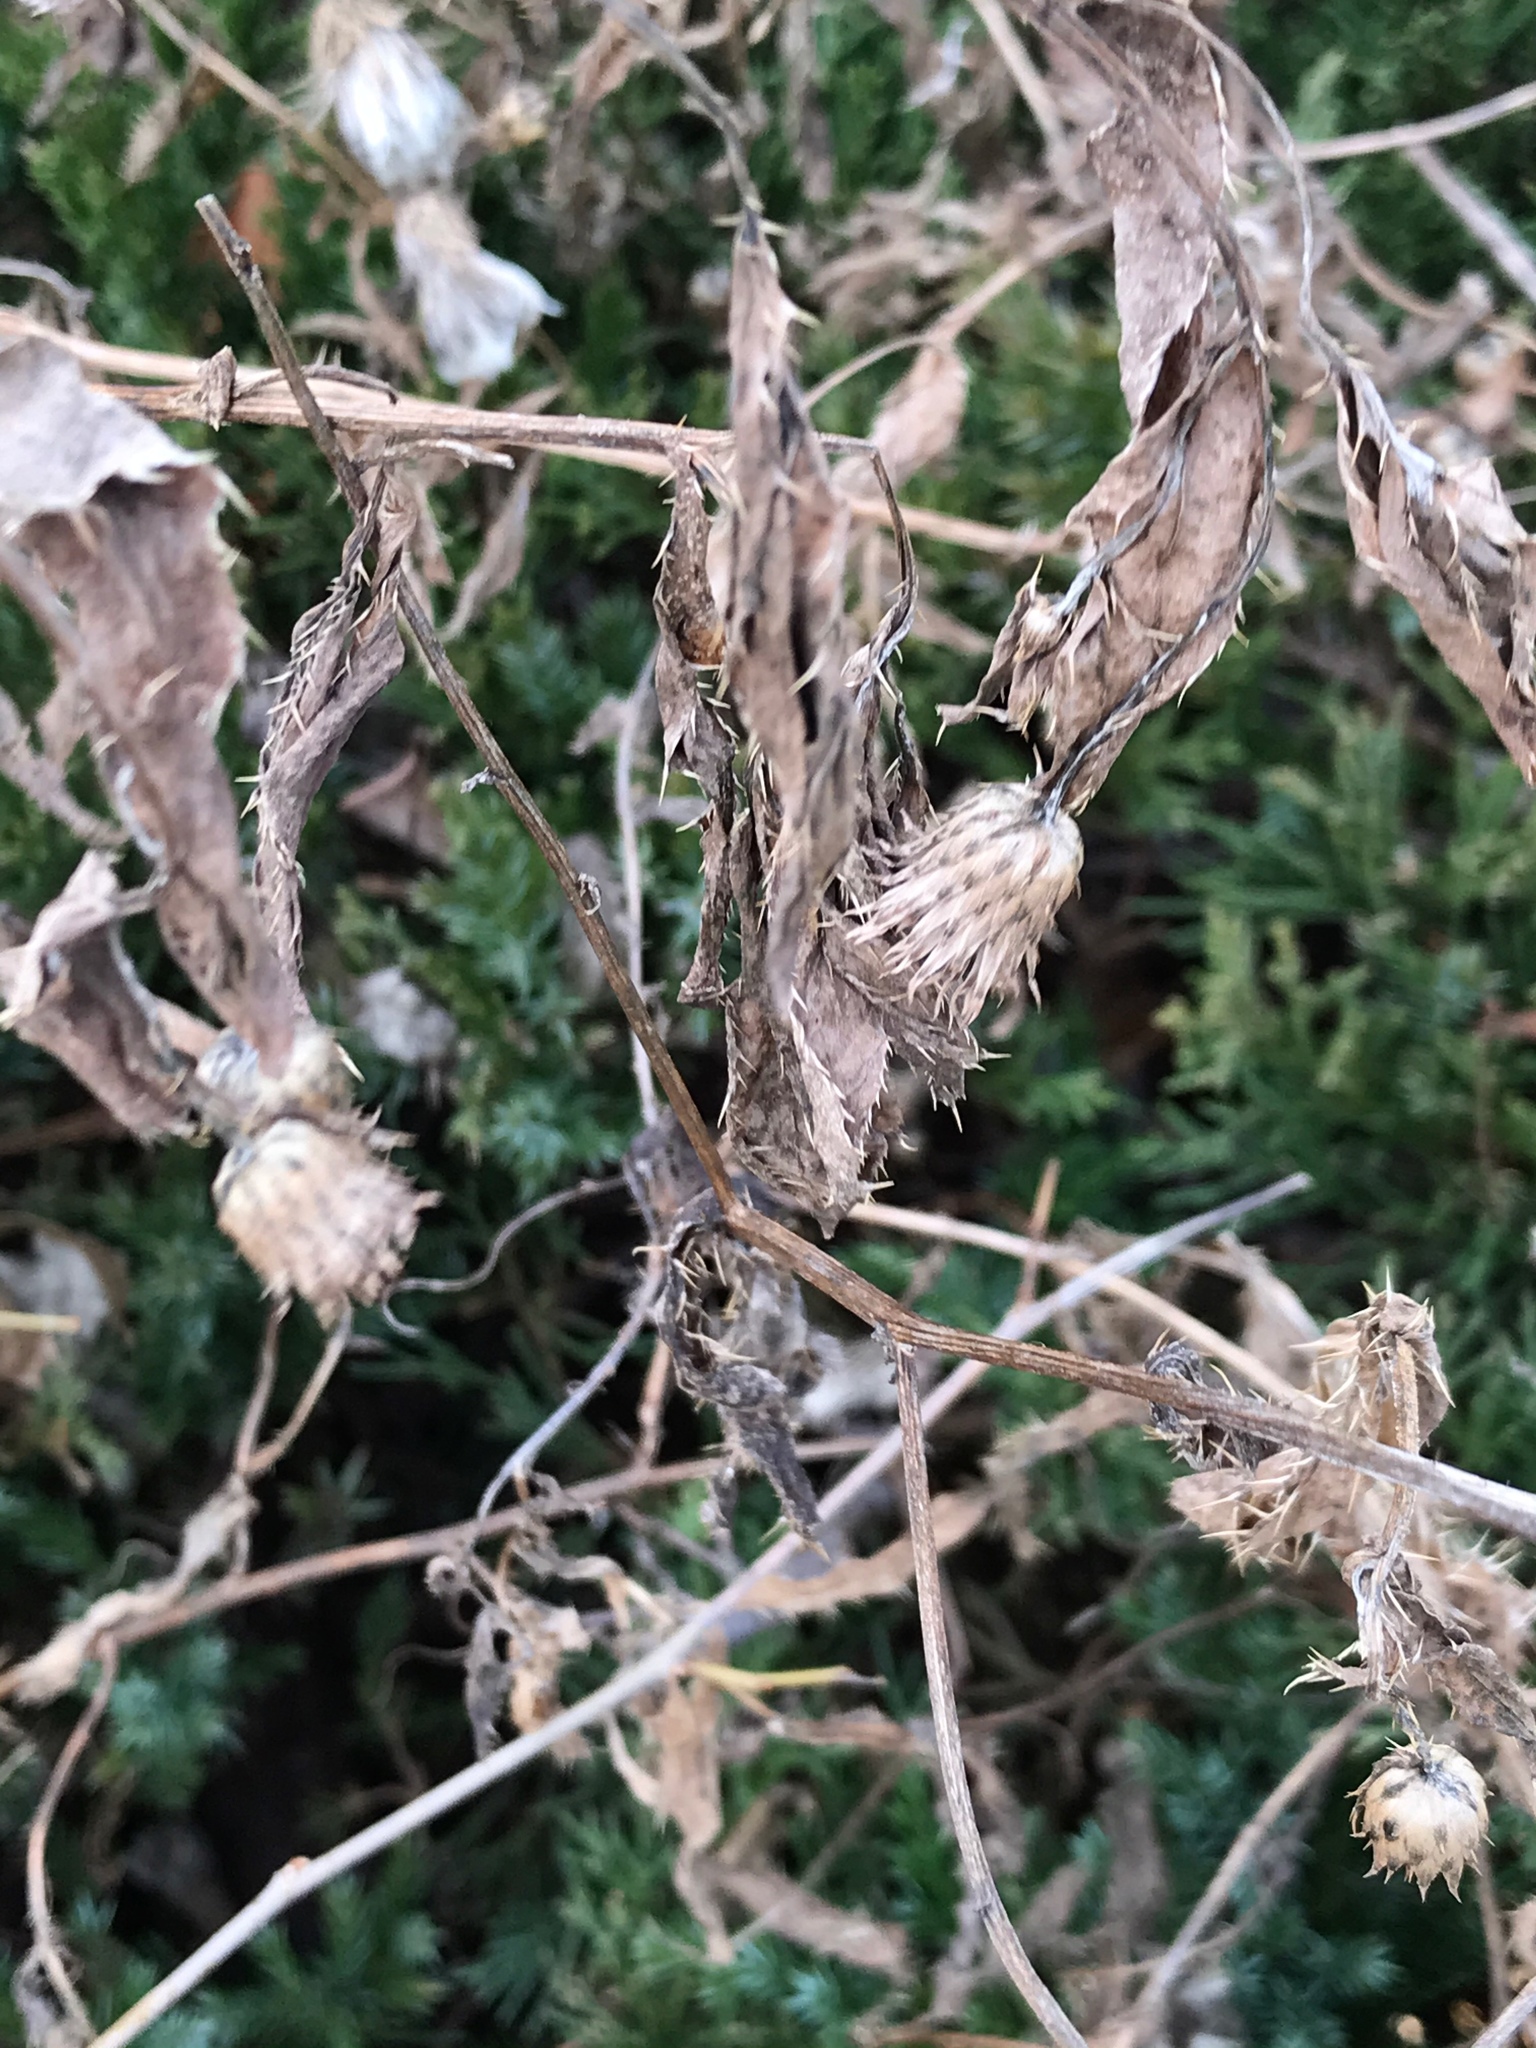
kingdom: Plantae
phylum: Tracheophyta
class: Magnoliopsida
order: Asterales
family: Asteraceae
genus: Cirsium
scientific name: Cirsium arvense
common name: Creeping thistle
